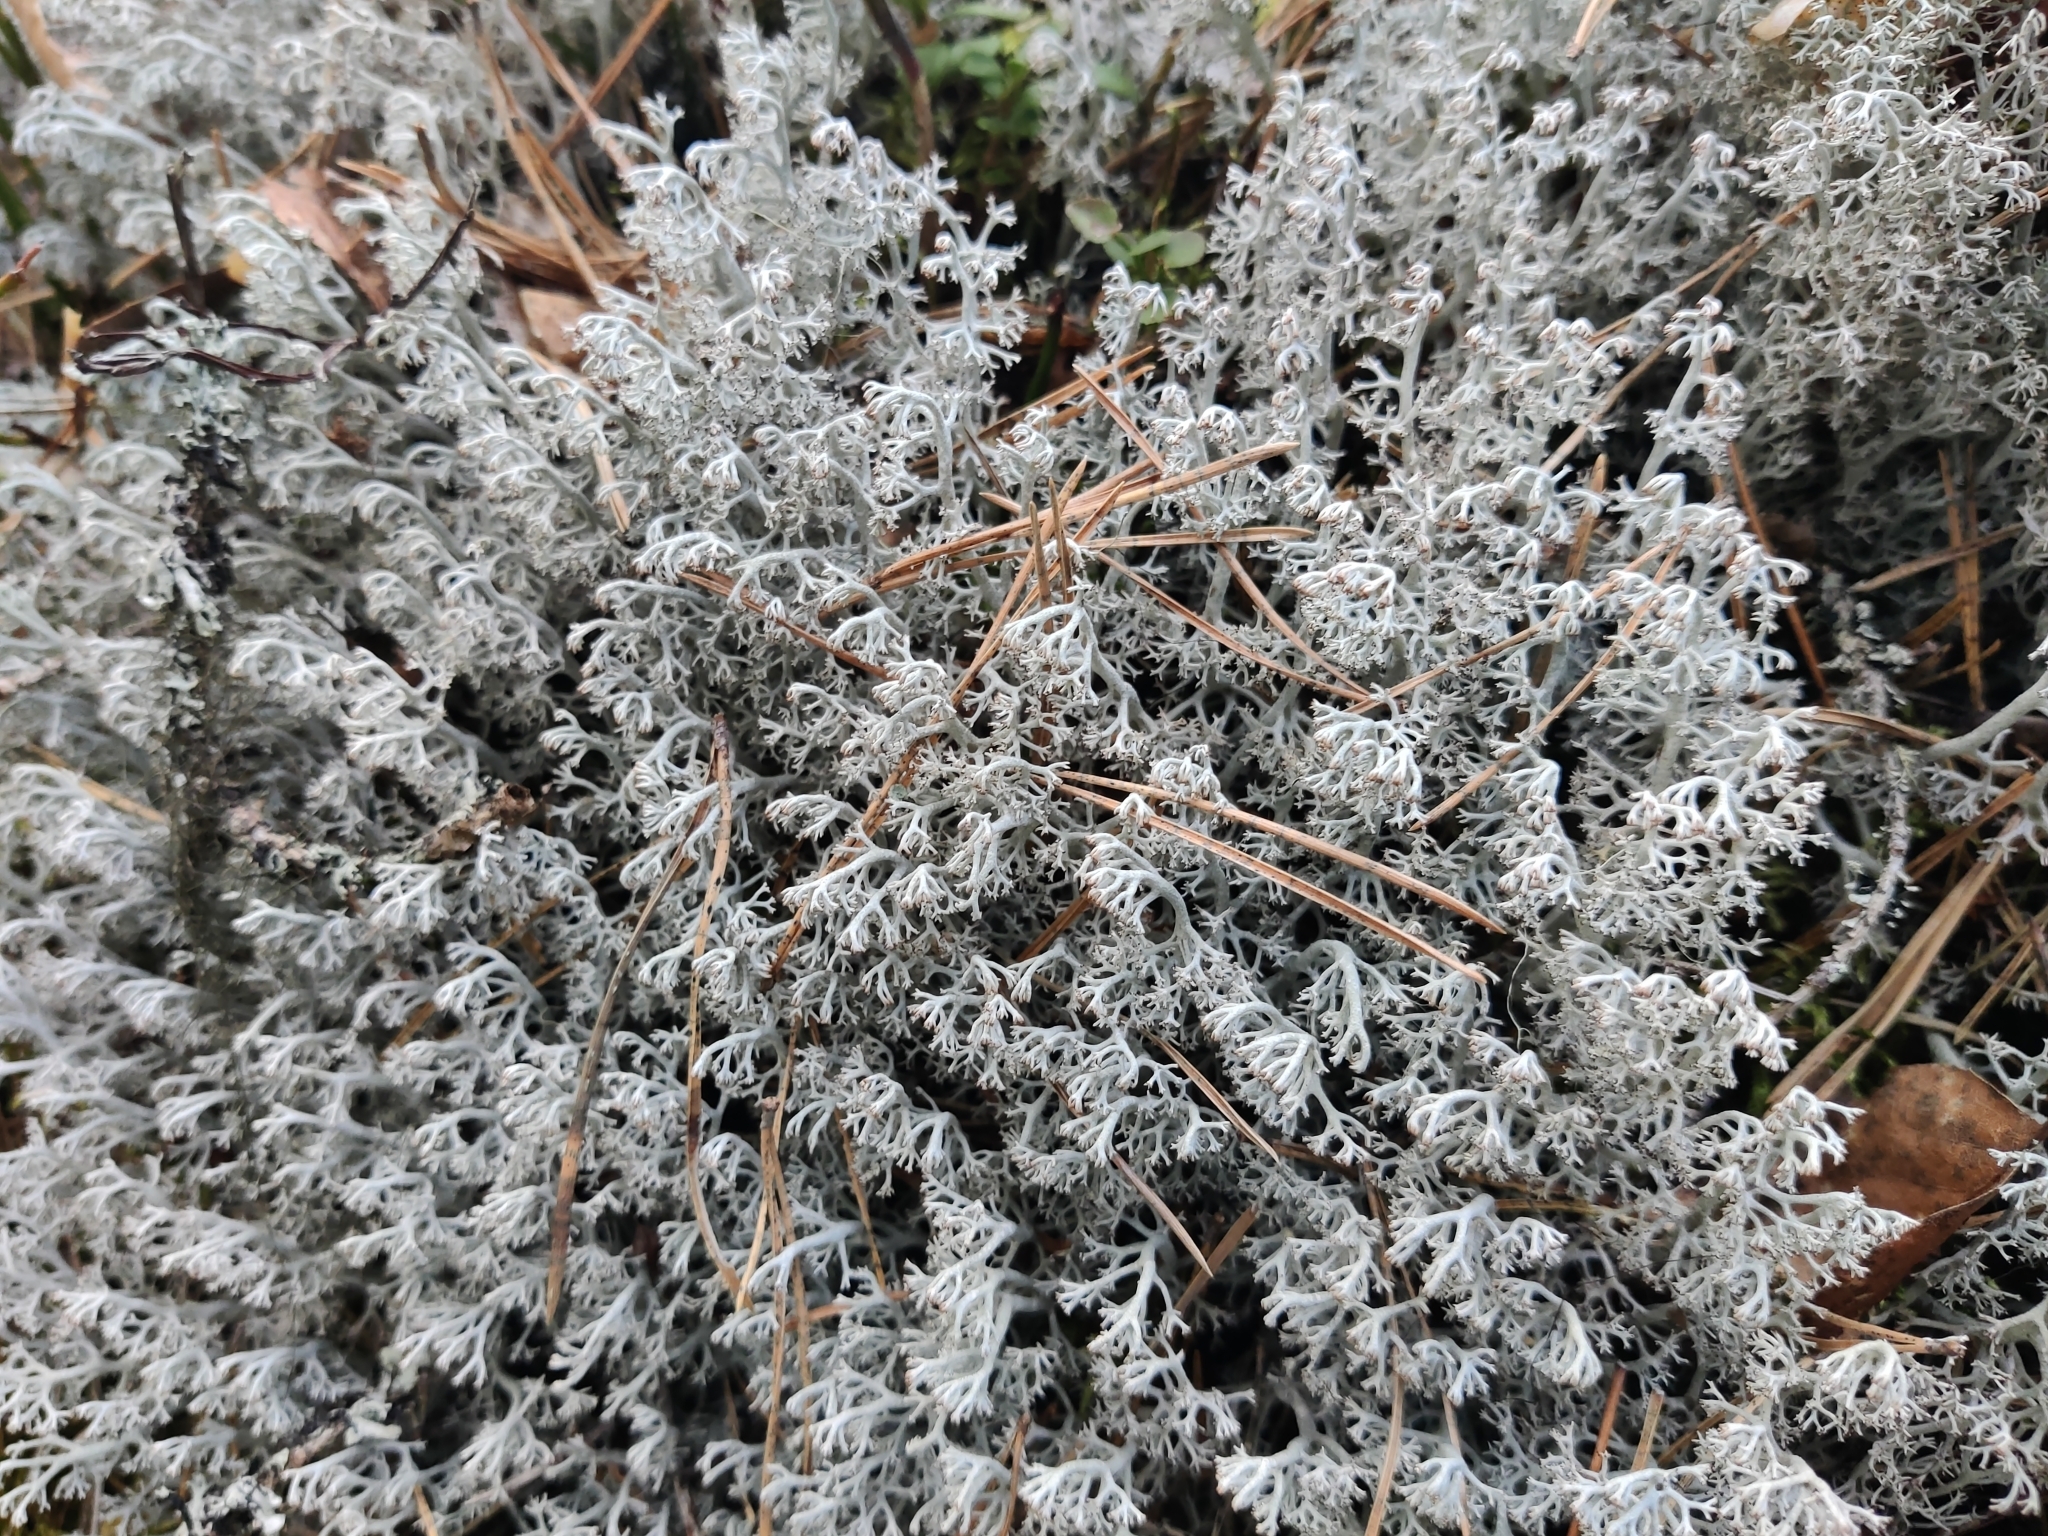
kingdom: Fungi
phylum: Ascomycota
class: Lecanoromycetes
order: Lecanorales
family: Cladoniaceae
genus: Cladonia
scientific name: Cladonia rangiferina
